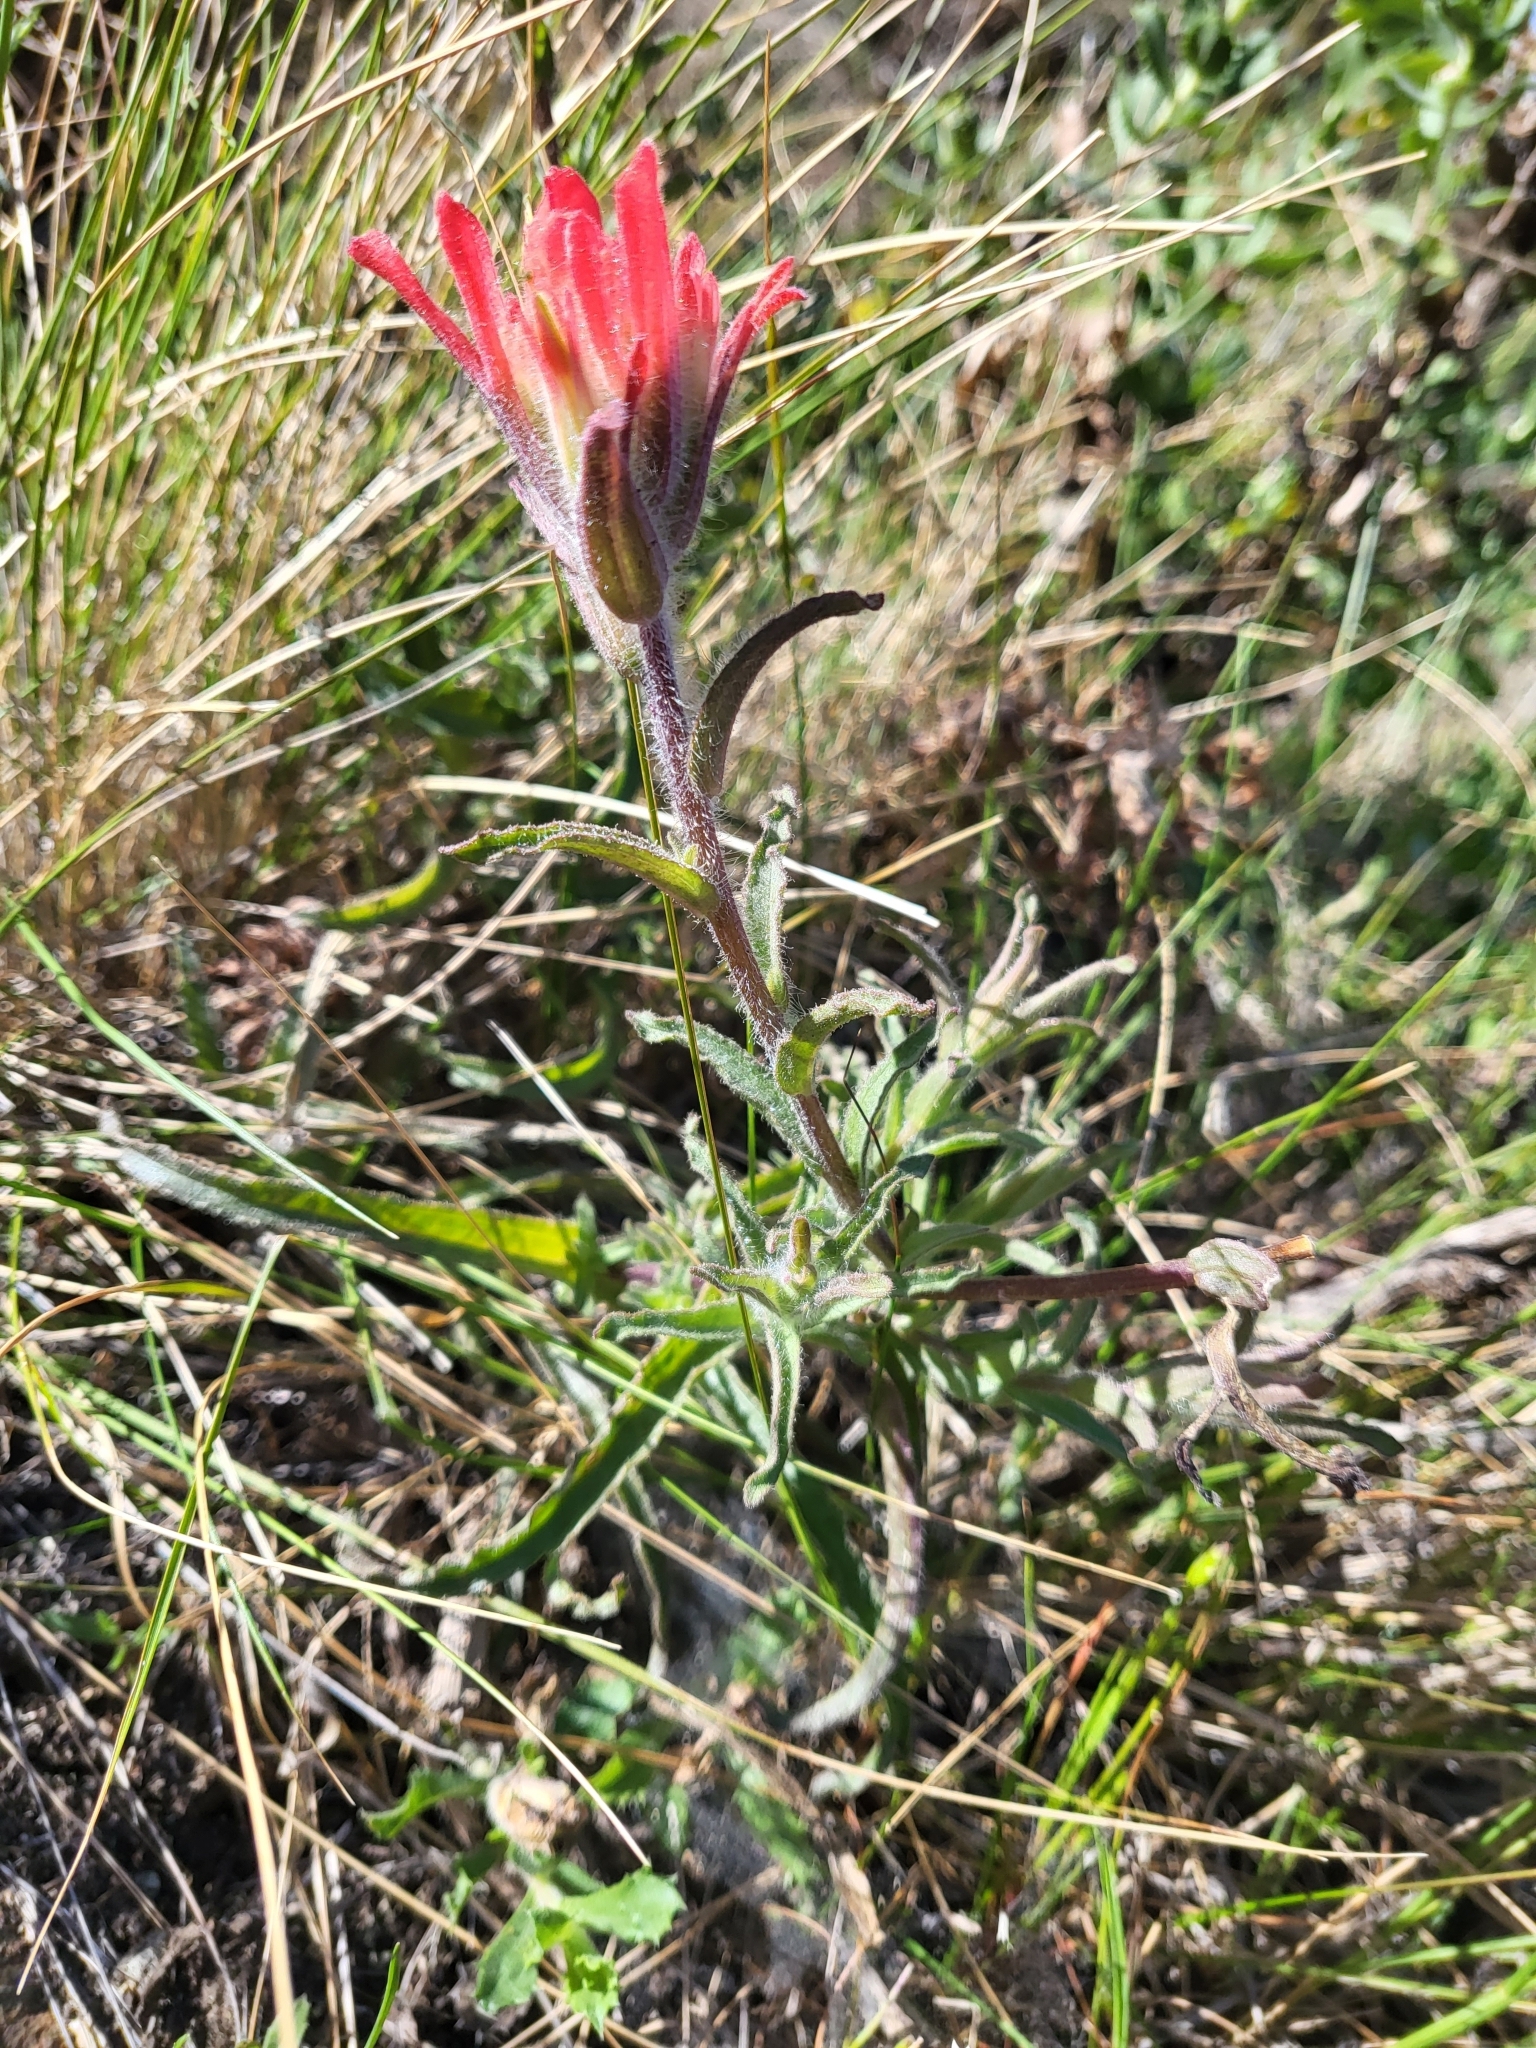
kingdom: Plantae
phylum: Tracheophyta
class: Magnoliopsida
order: Lamiales
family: Orobanchaceae
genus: Castilleja
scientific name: Castilleja affinis
